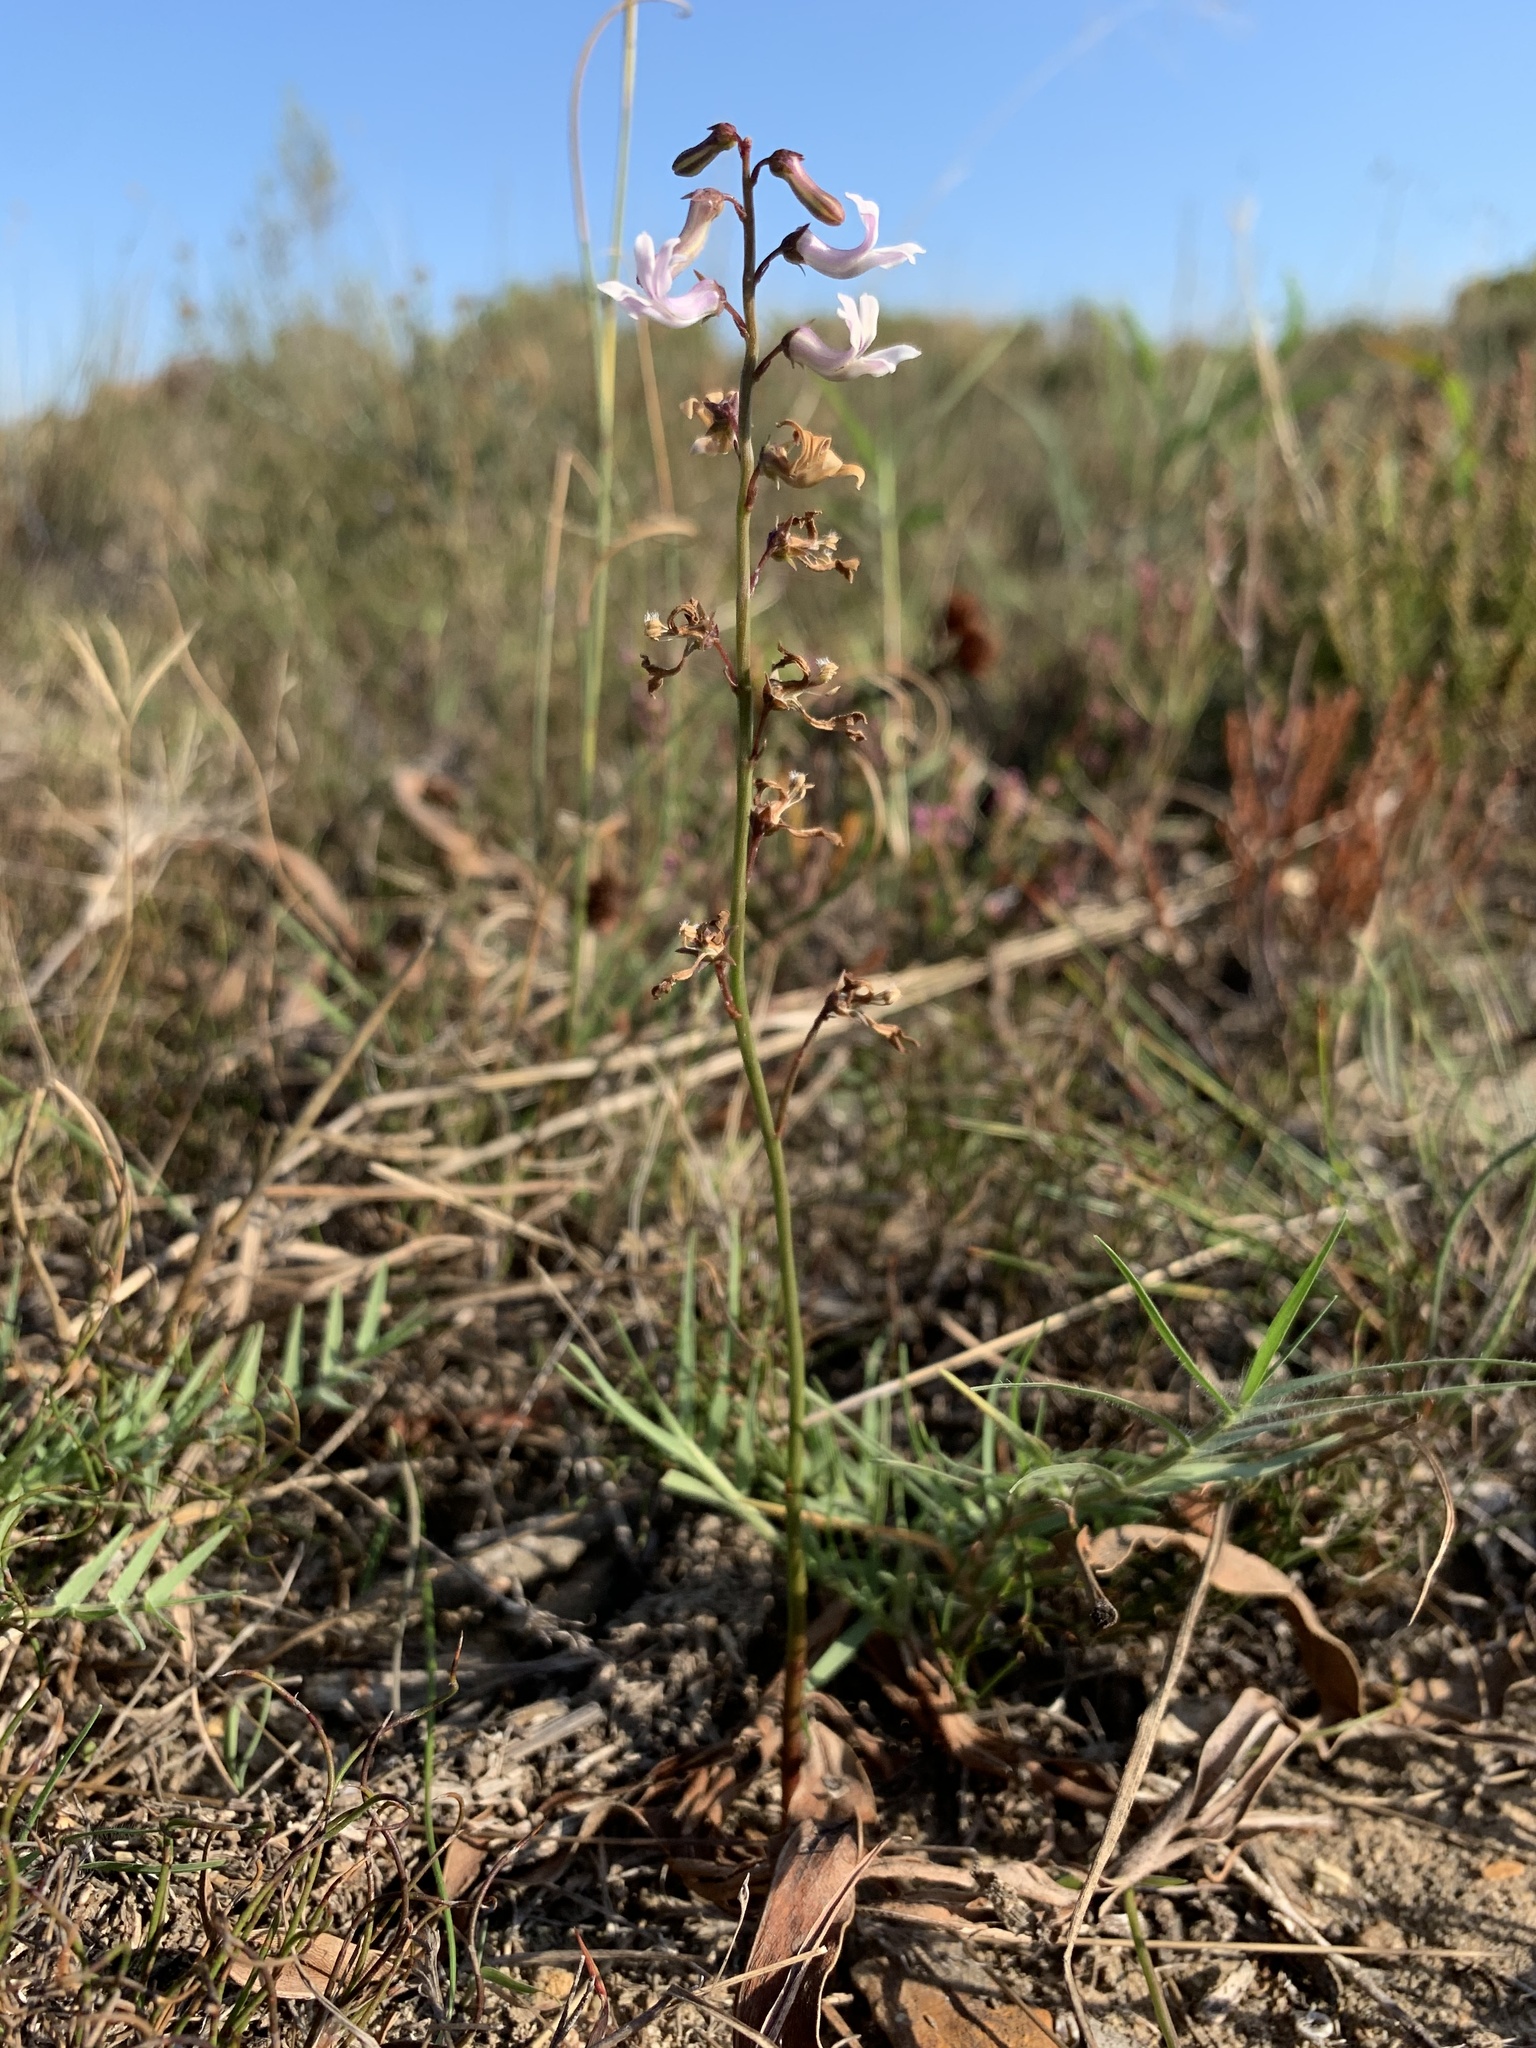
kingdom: Plantae
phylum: Tracheophyta
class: Magnoliopsida
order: Asterales
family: Campanulaceae
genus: Cyphia
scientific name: Cyphia bulbosa
